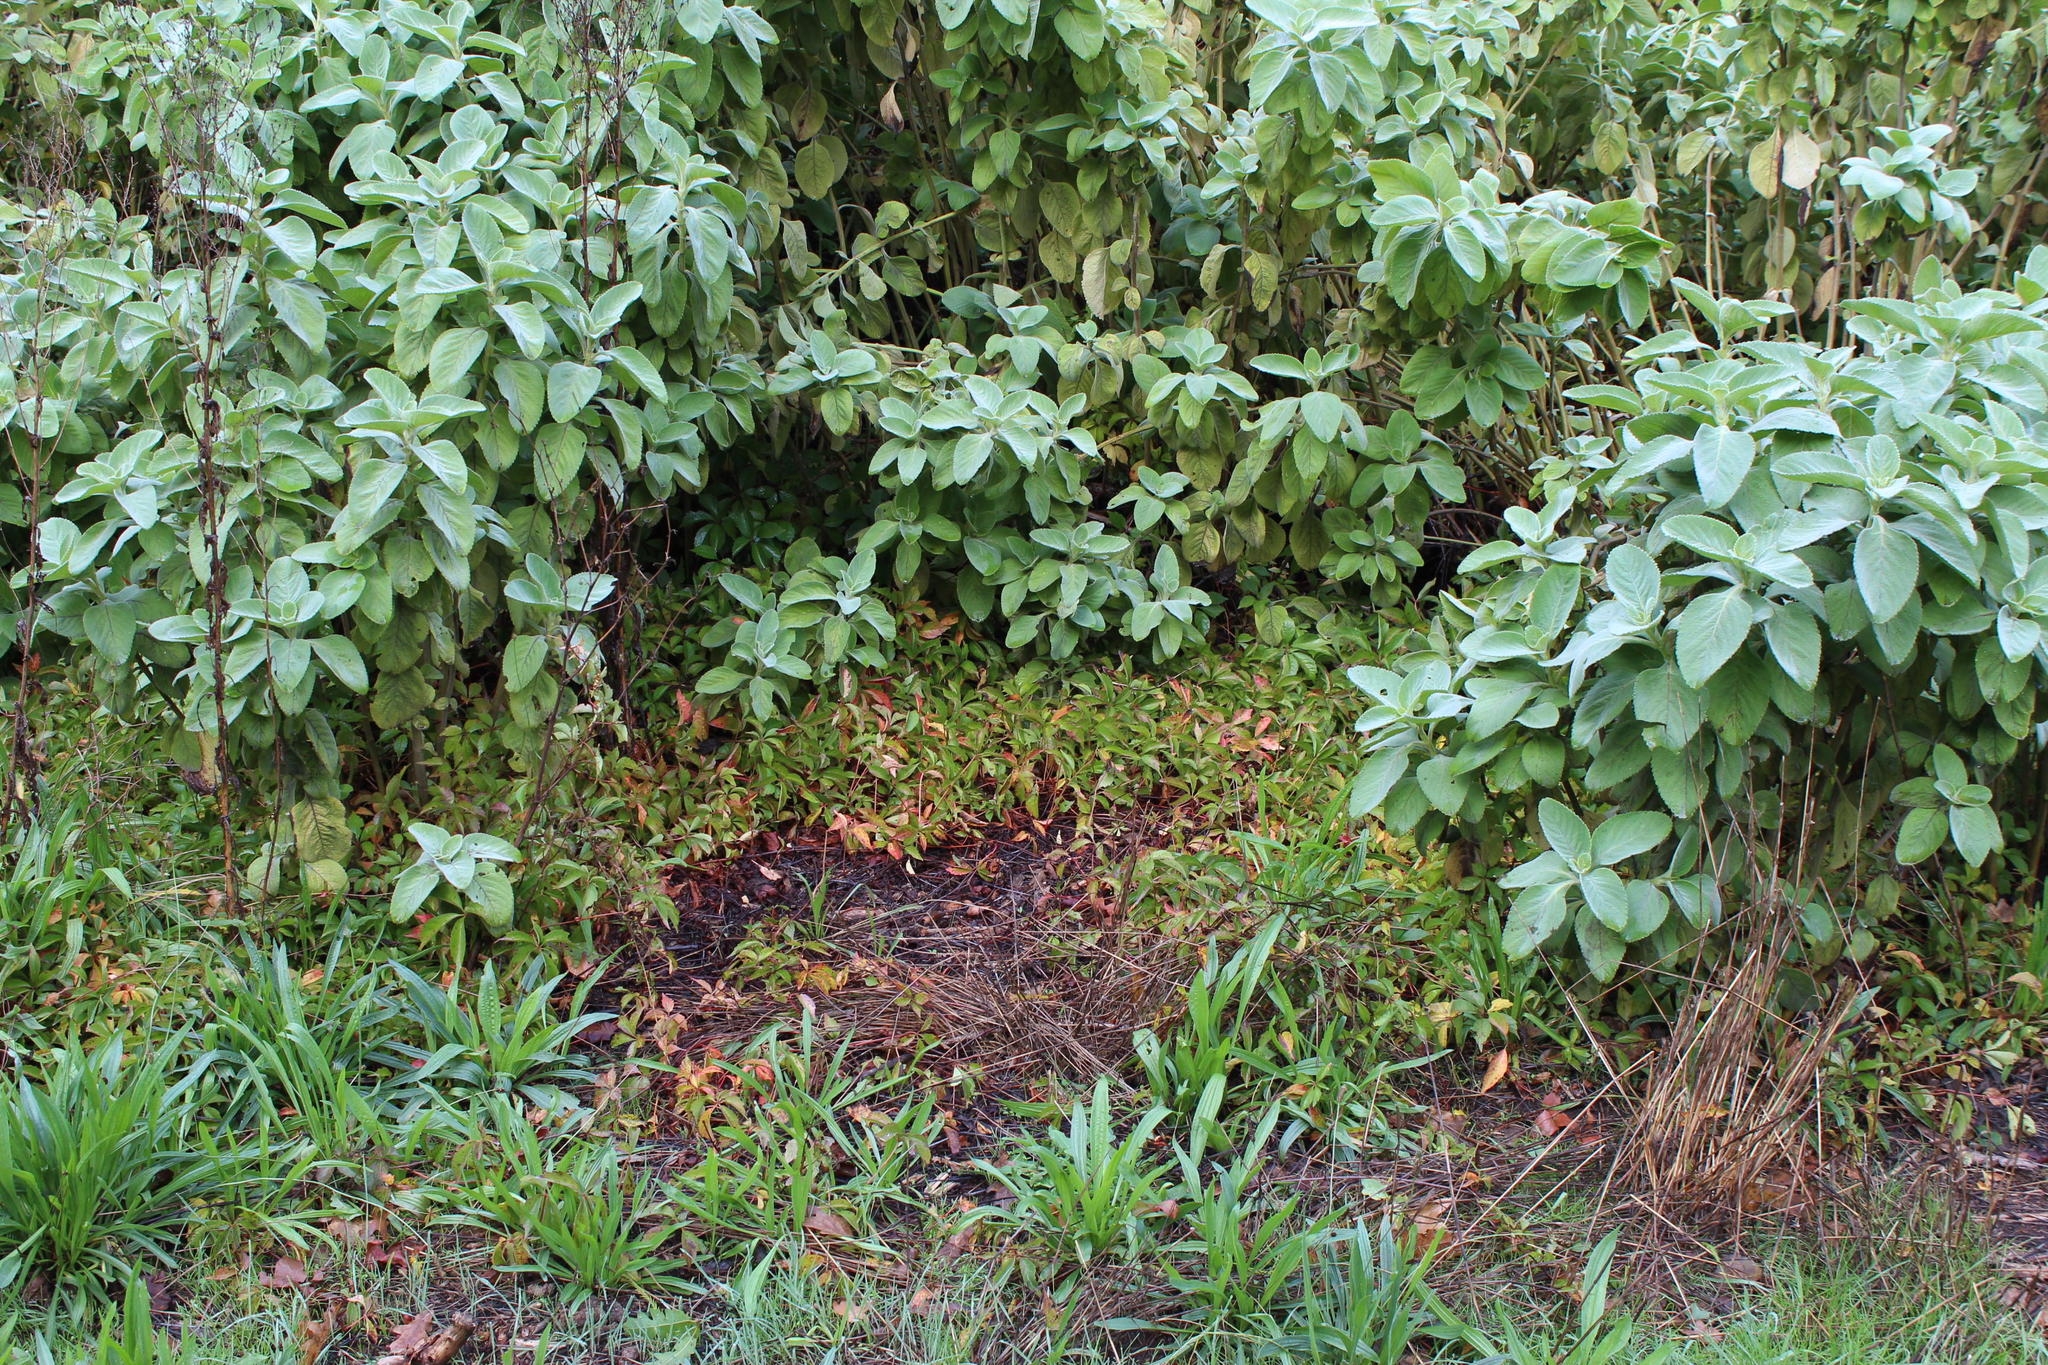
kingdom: Plantae
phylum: Tracheophyta
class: Magnoliopsida
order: Vitales
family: Vitaceae
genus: Parthenocissus
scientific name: Parthenocissus quinquefolia
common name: Virginia-creeper
